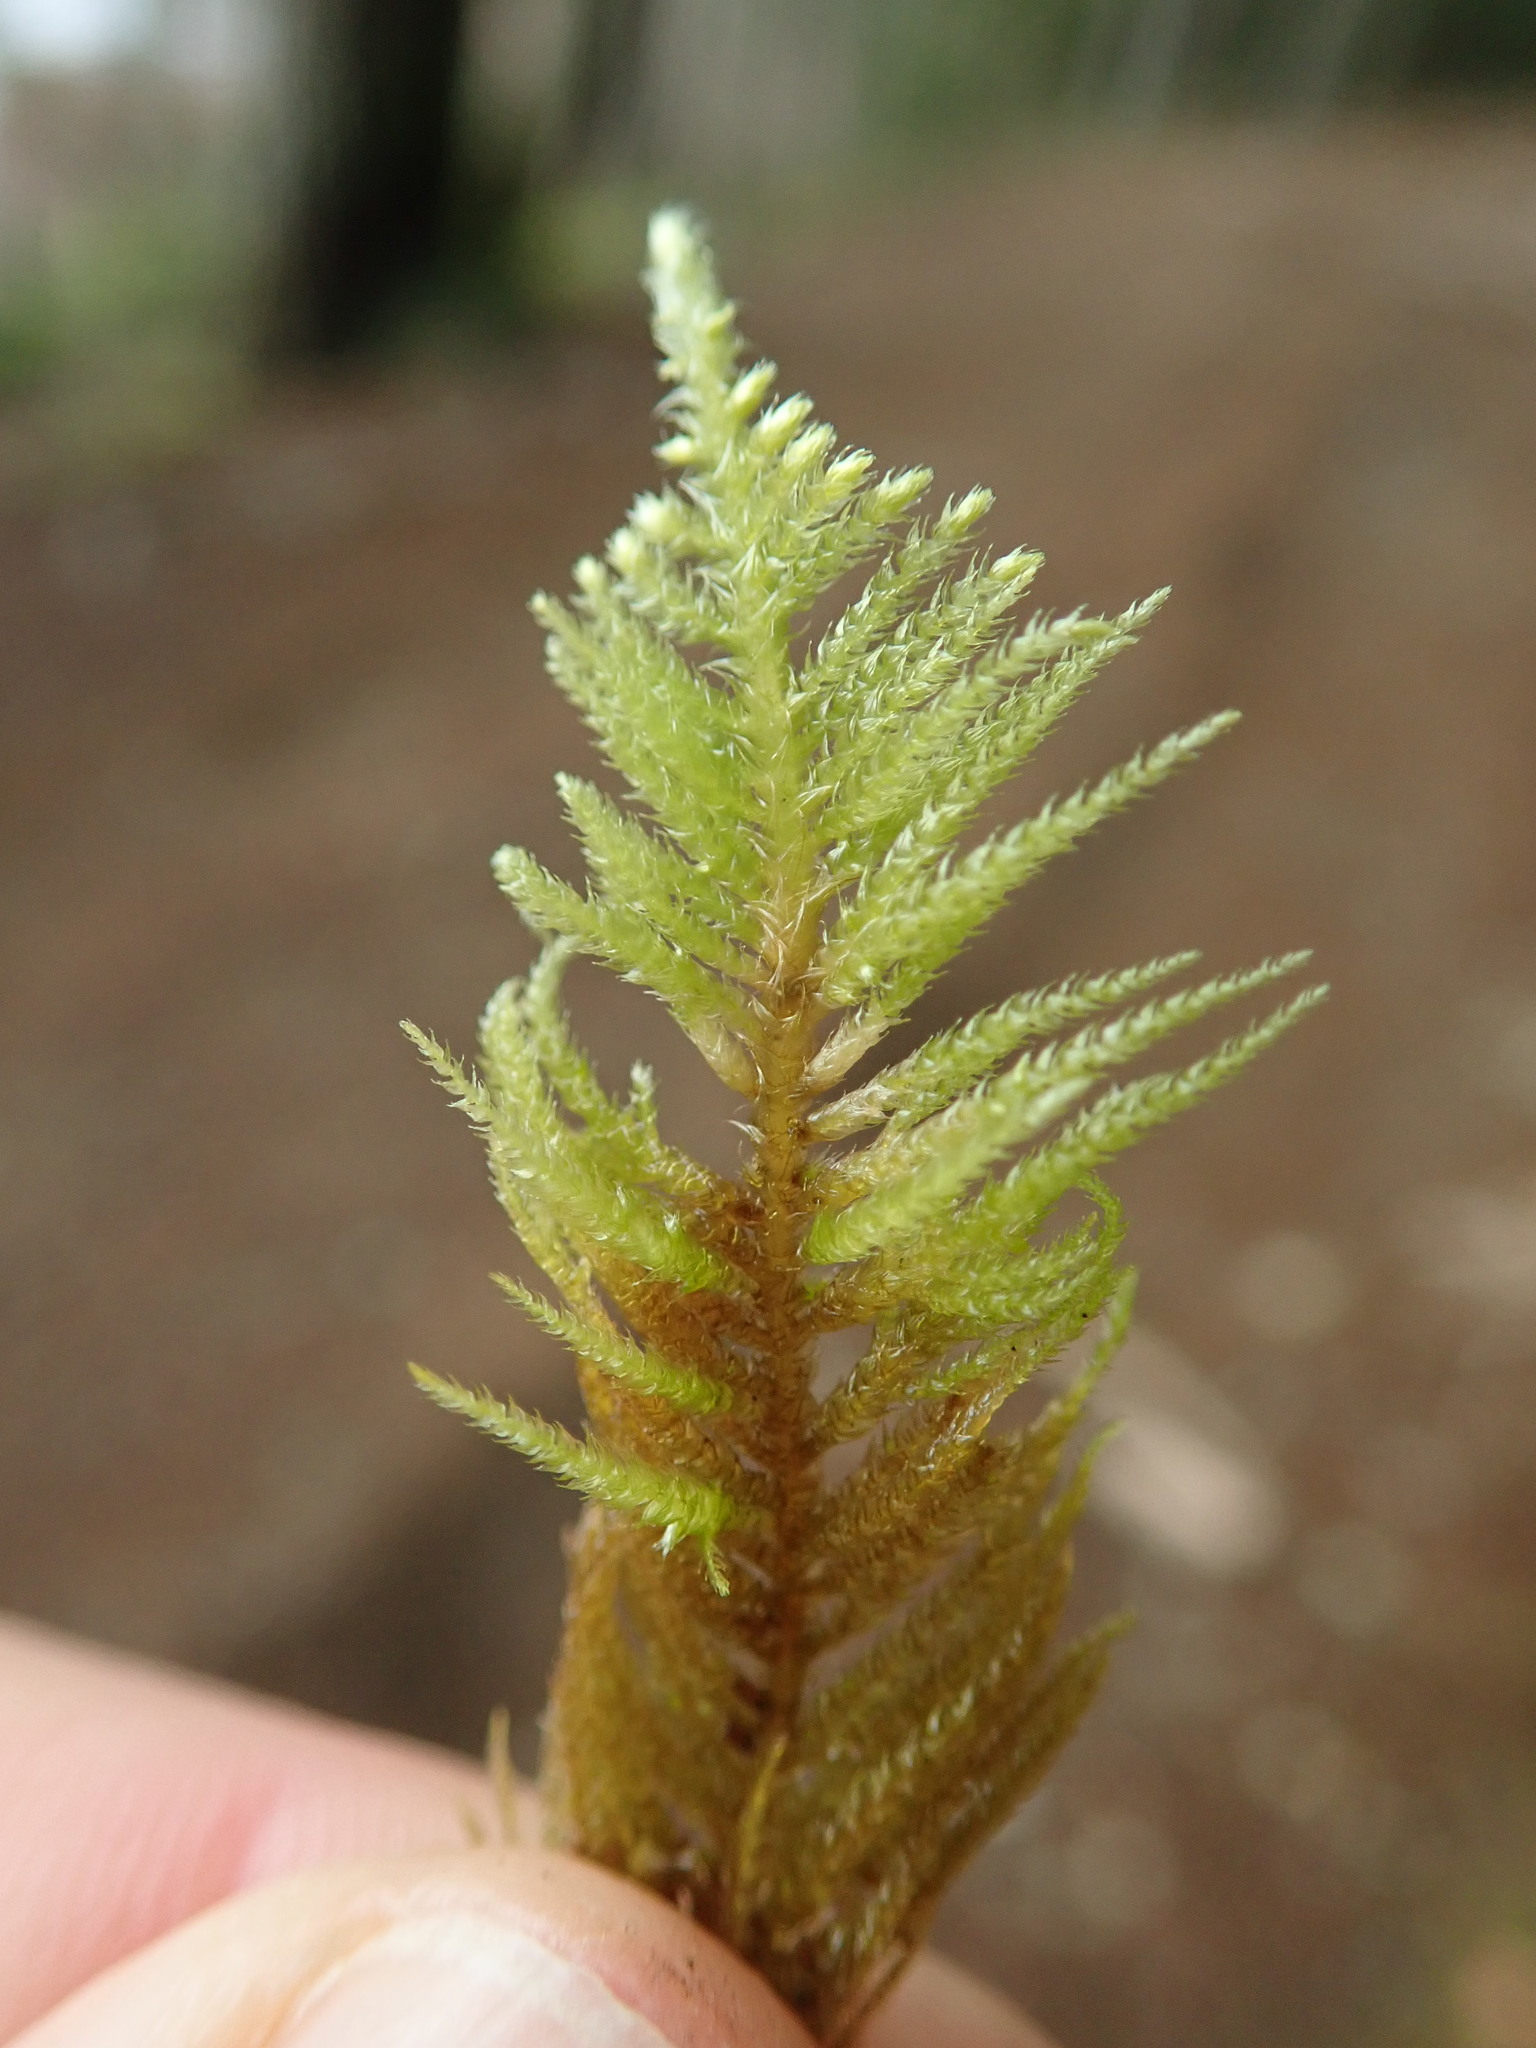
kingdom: Plantae
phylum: Bryophyta
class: Bryopsida
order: Hypnales
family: Brachytheciaceae
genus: Kindbergia
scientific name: Kindbergia oregana
